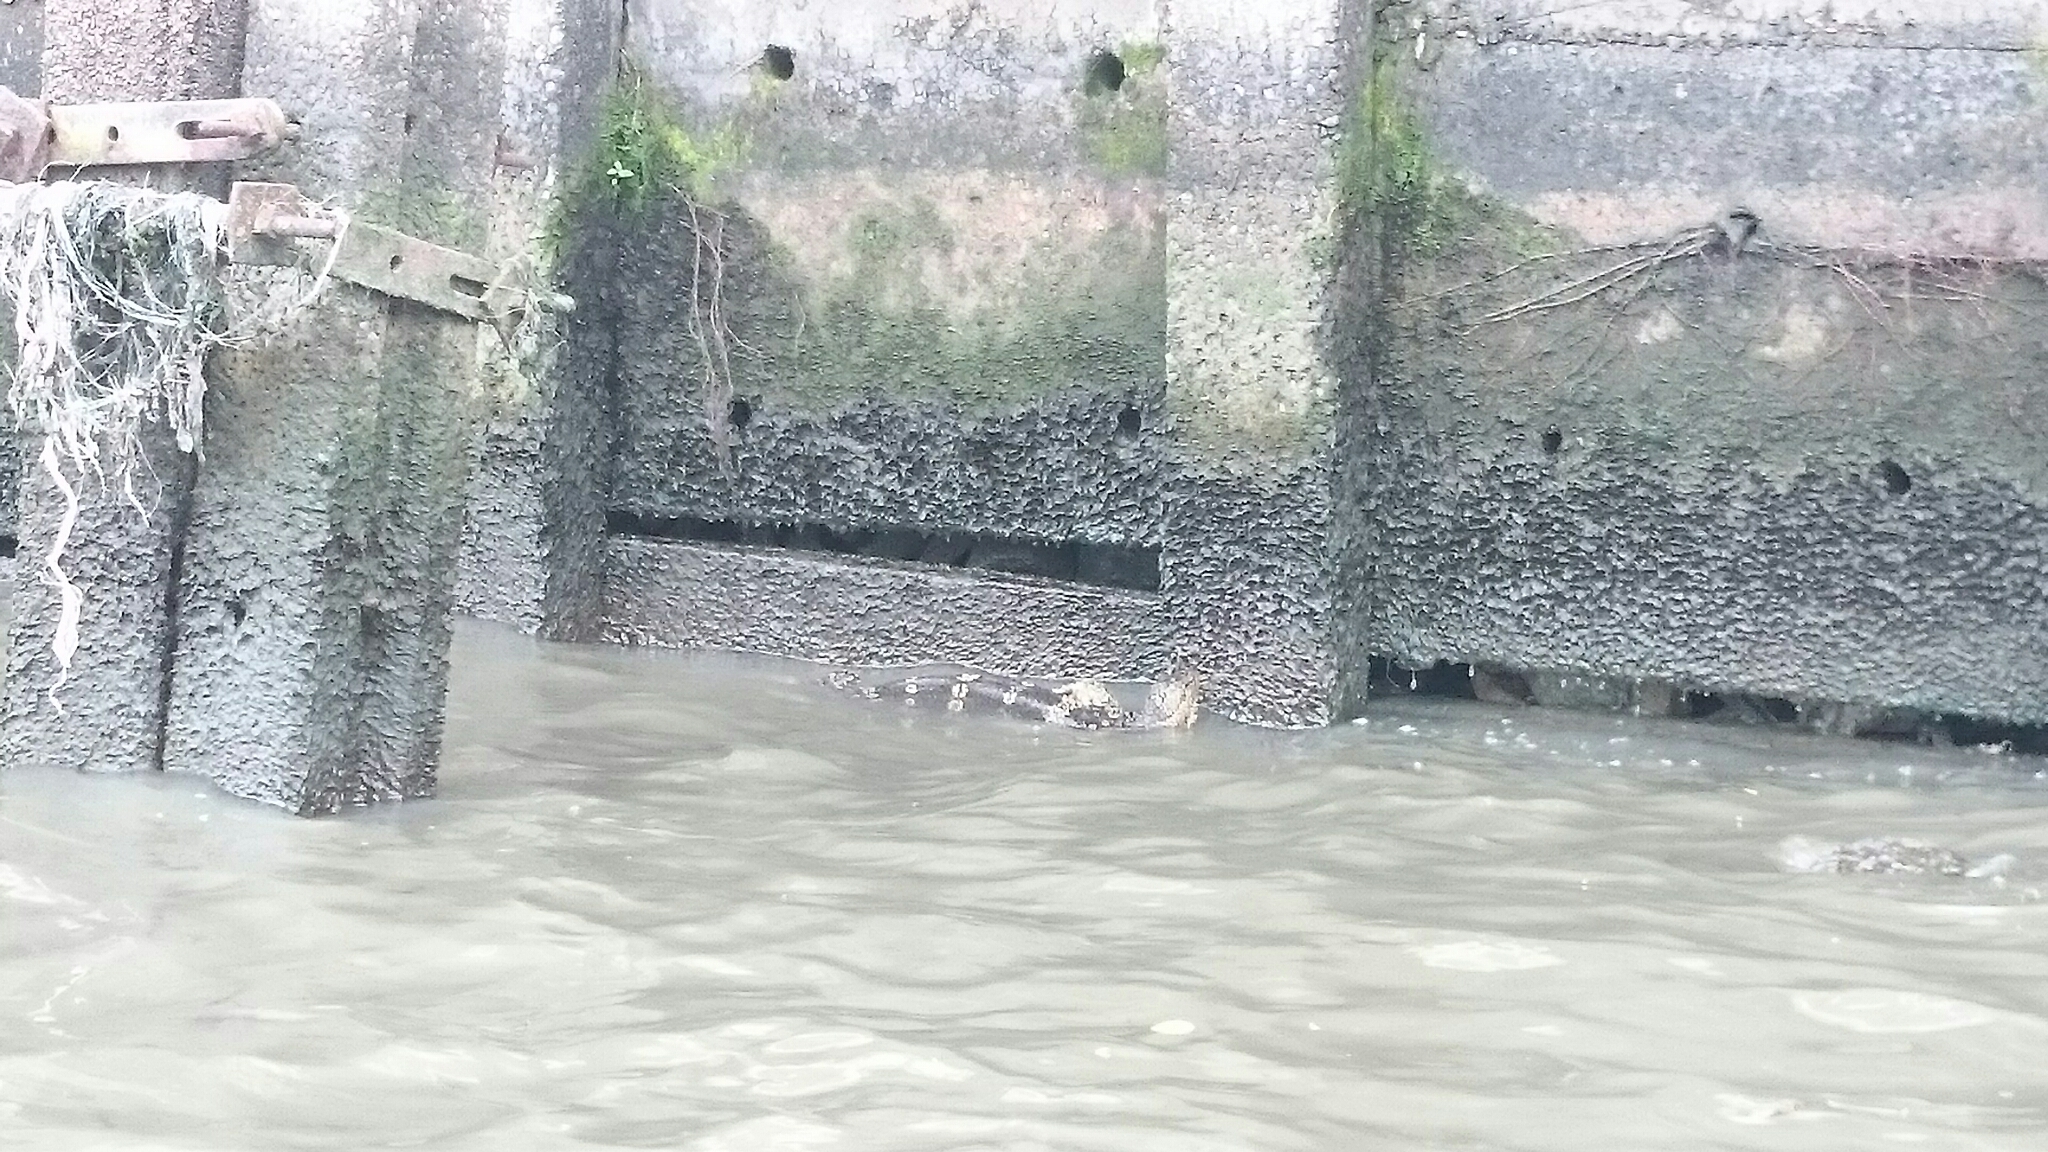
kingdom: Animalia
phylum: Chordata
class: Squamata
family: Varanidae
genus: Varanus
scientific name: Varanus salvator
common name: Common water monitor
